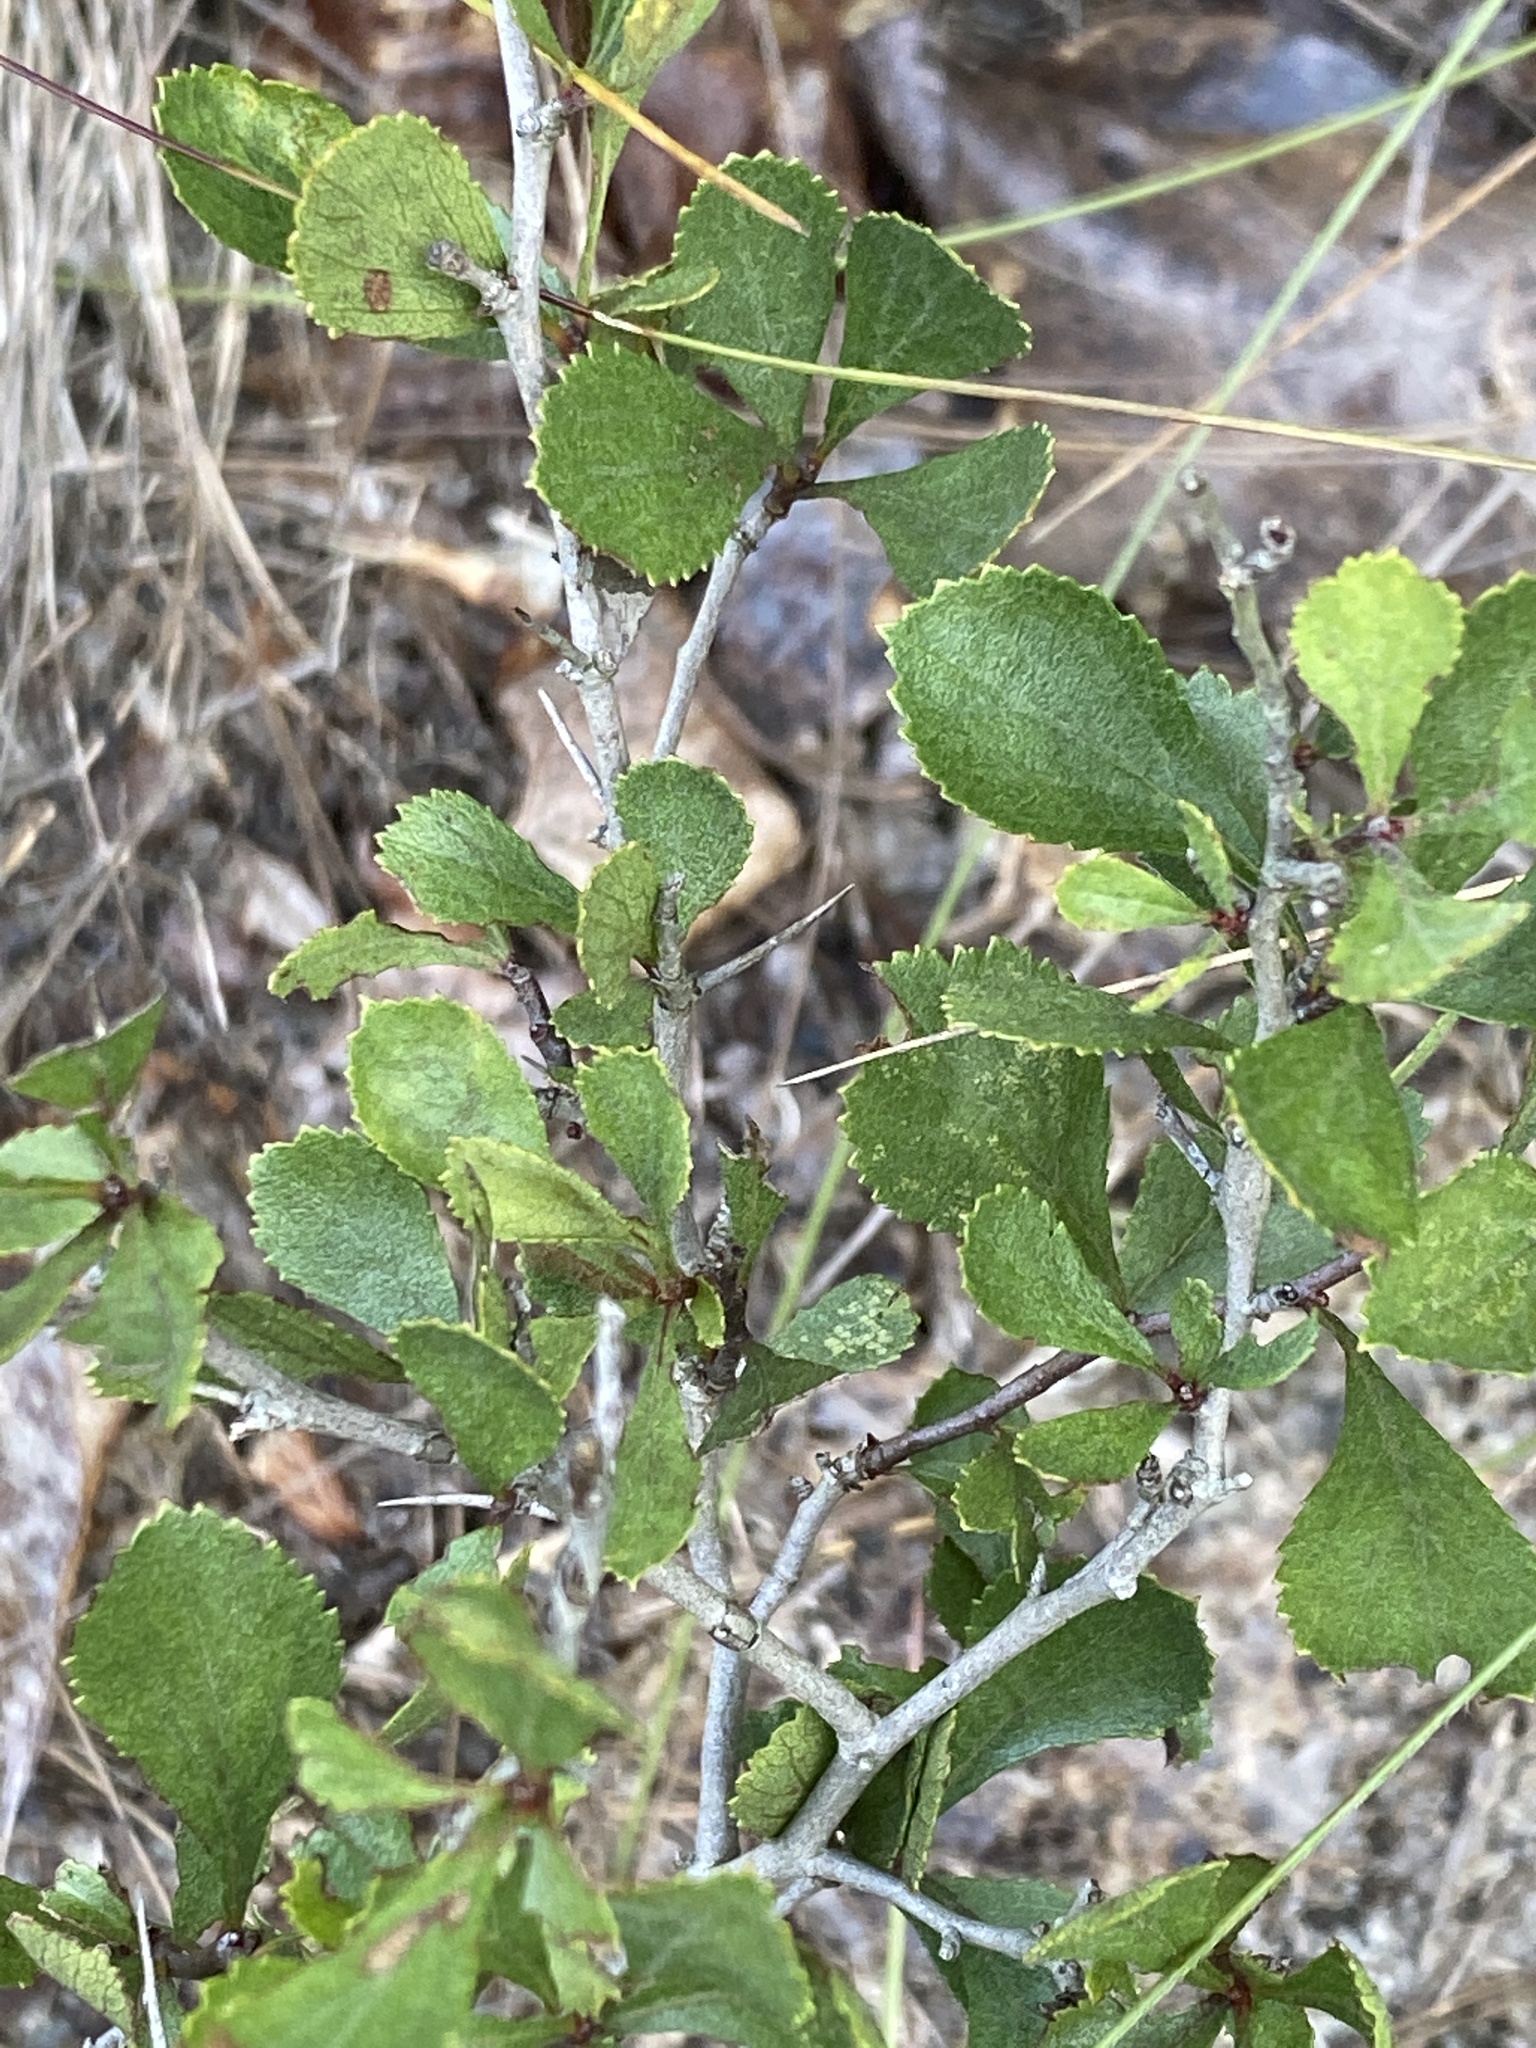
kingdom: Plantae
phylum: Tracheophyta
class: Magnoliopsida
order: Rosales
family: Rosaceae
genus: Crataegus
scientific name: Crataegus munda
